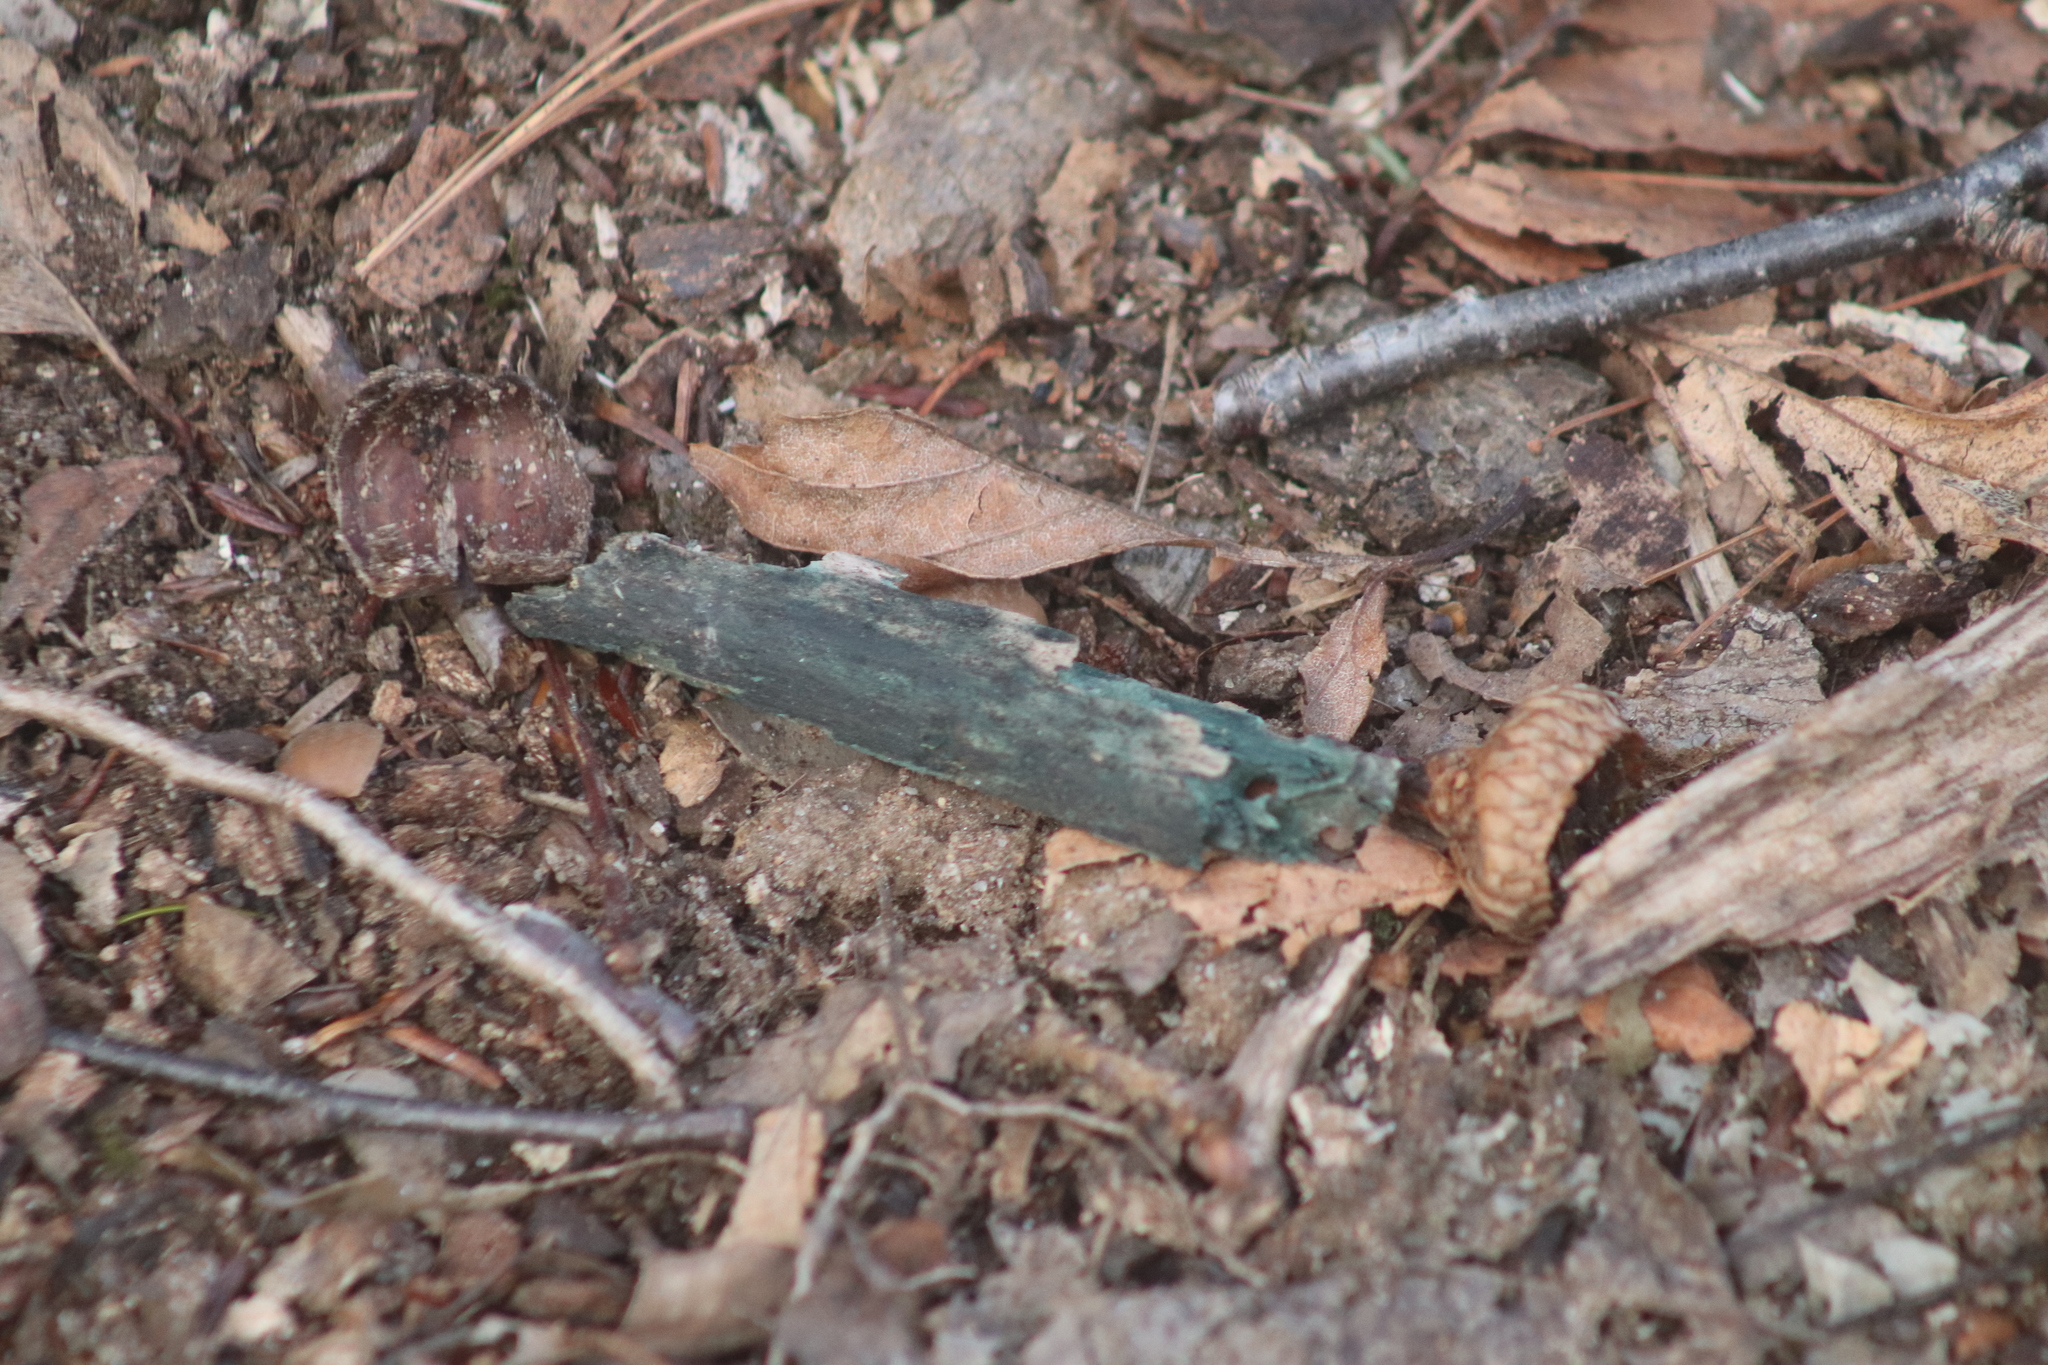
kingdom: Fungi
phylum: Ascomycota
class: Leotiomycetes
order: Helotiales
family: Chlorociboriaceae
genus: Chlorociboria
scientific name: Chlorociboria
